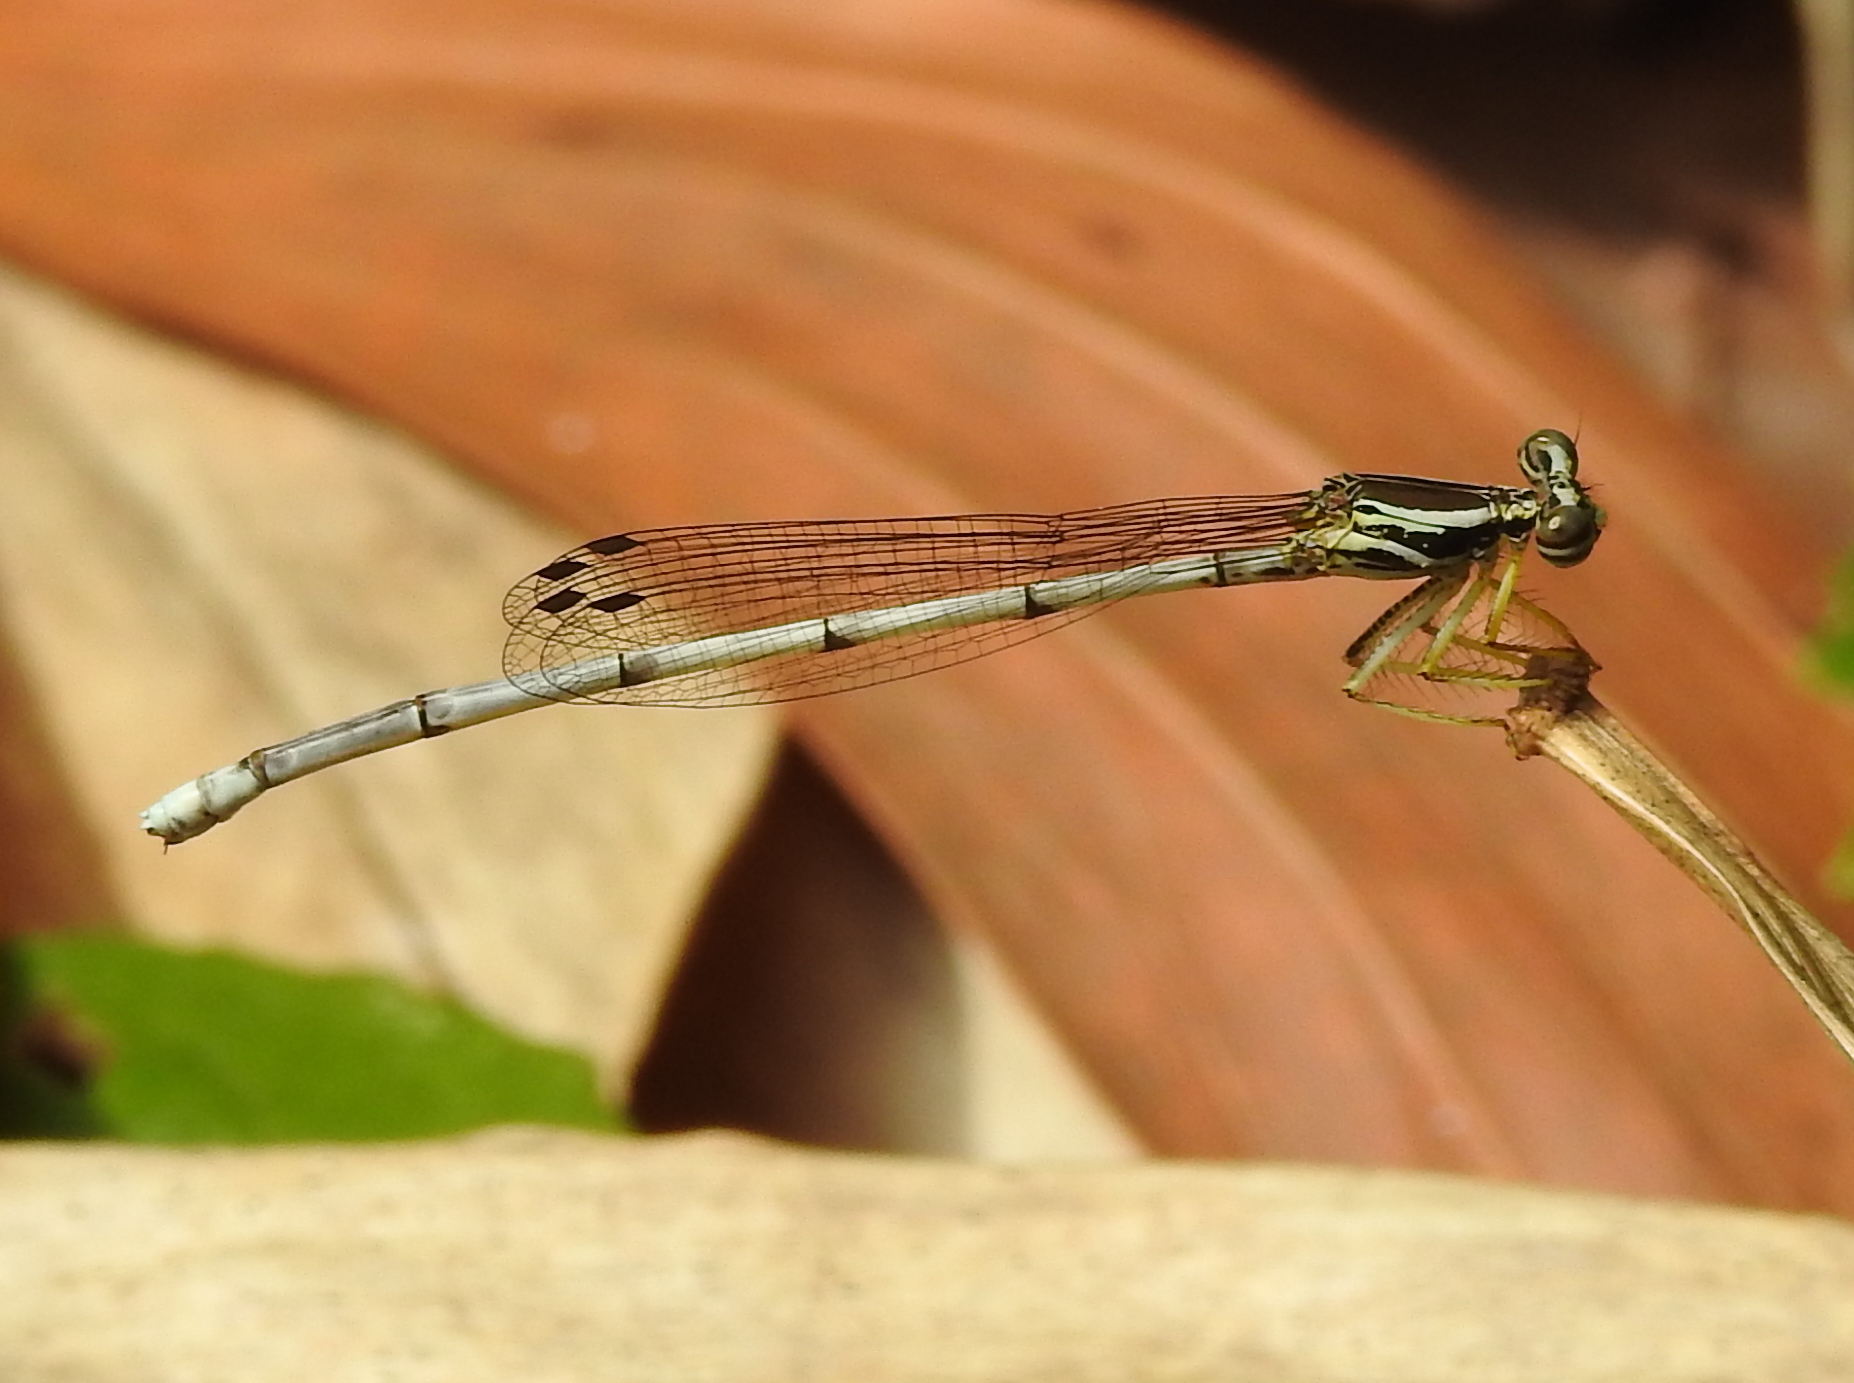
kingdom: Animalia
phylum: Arthropoda
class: Insecta
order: Odonata
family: Platycnemididae
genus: Copera
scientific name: Copera marginipes
